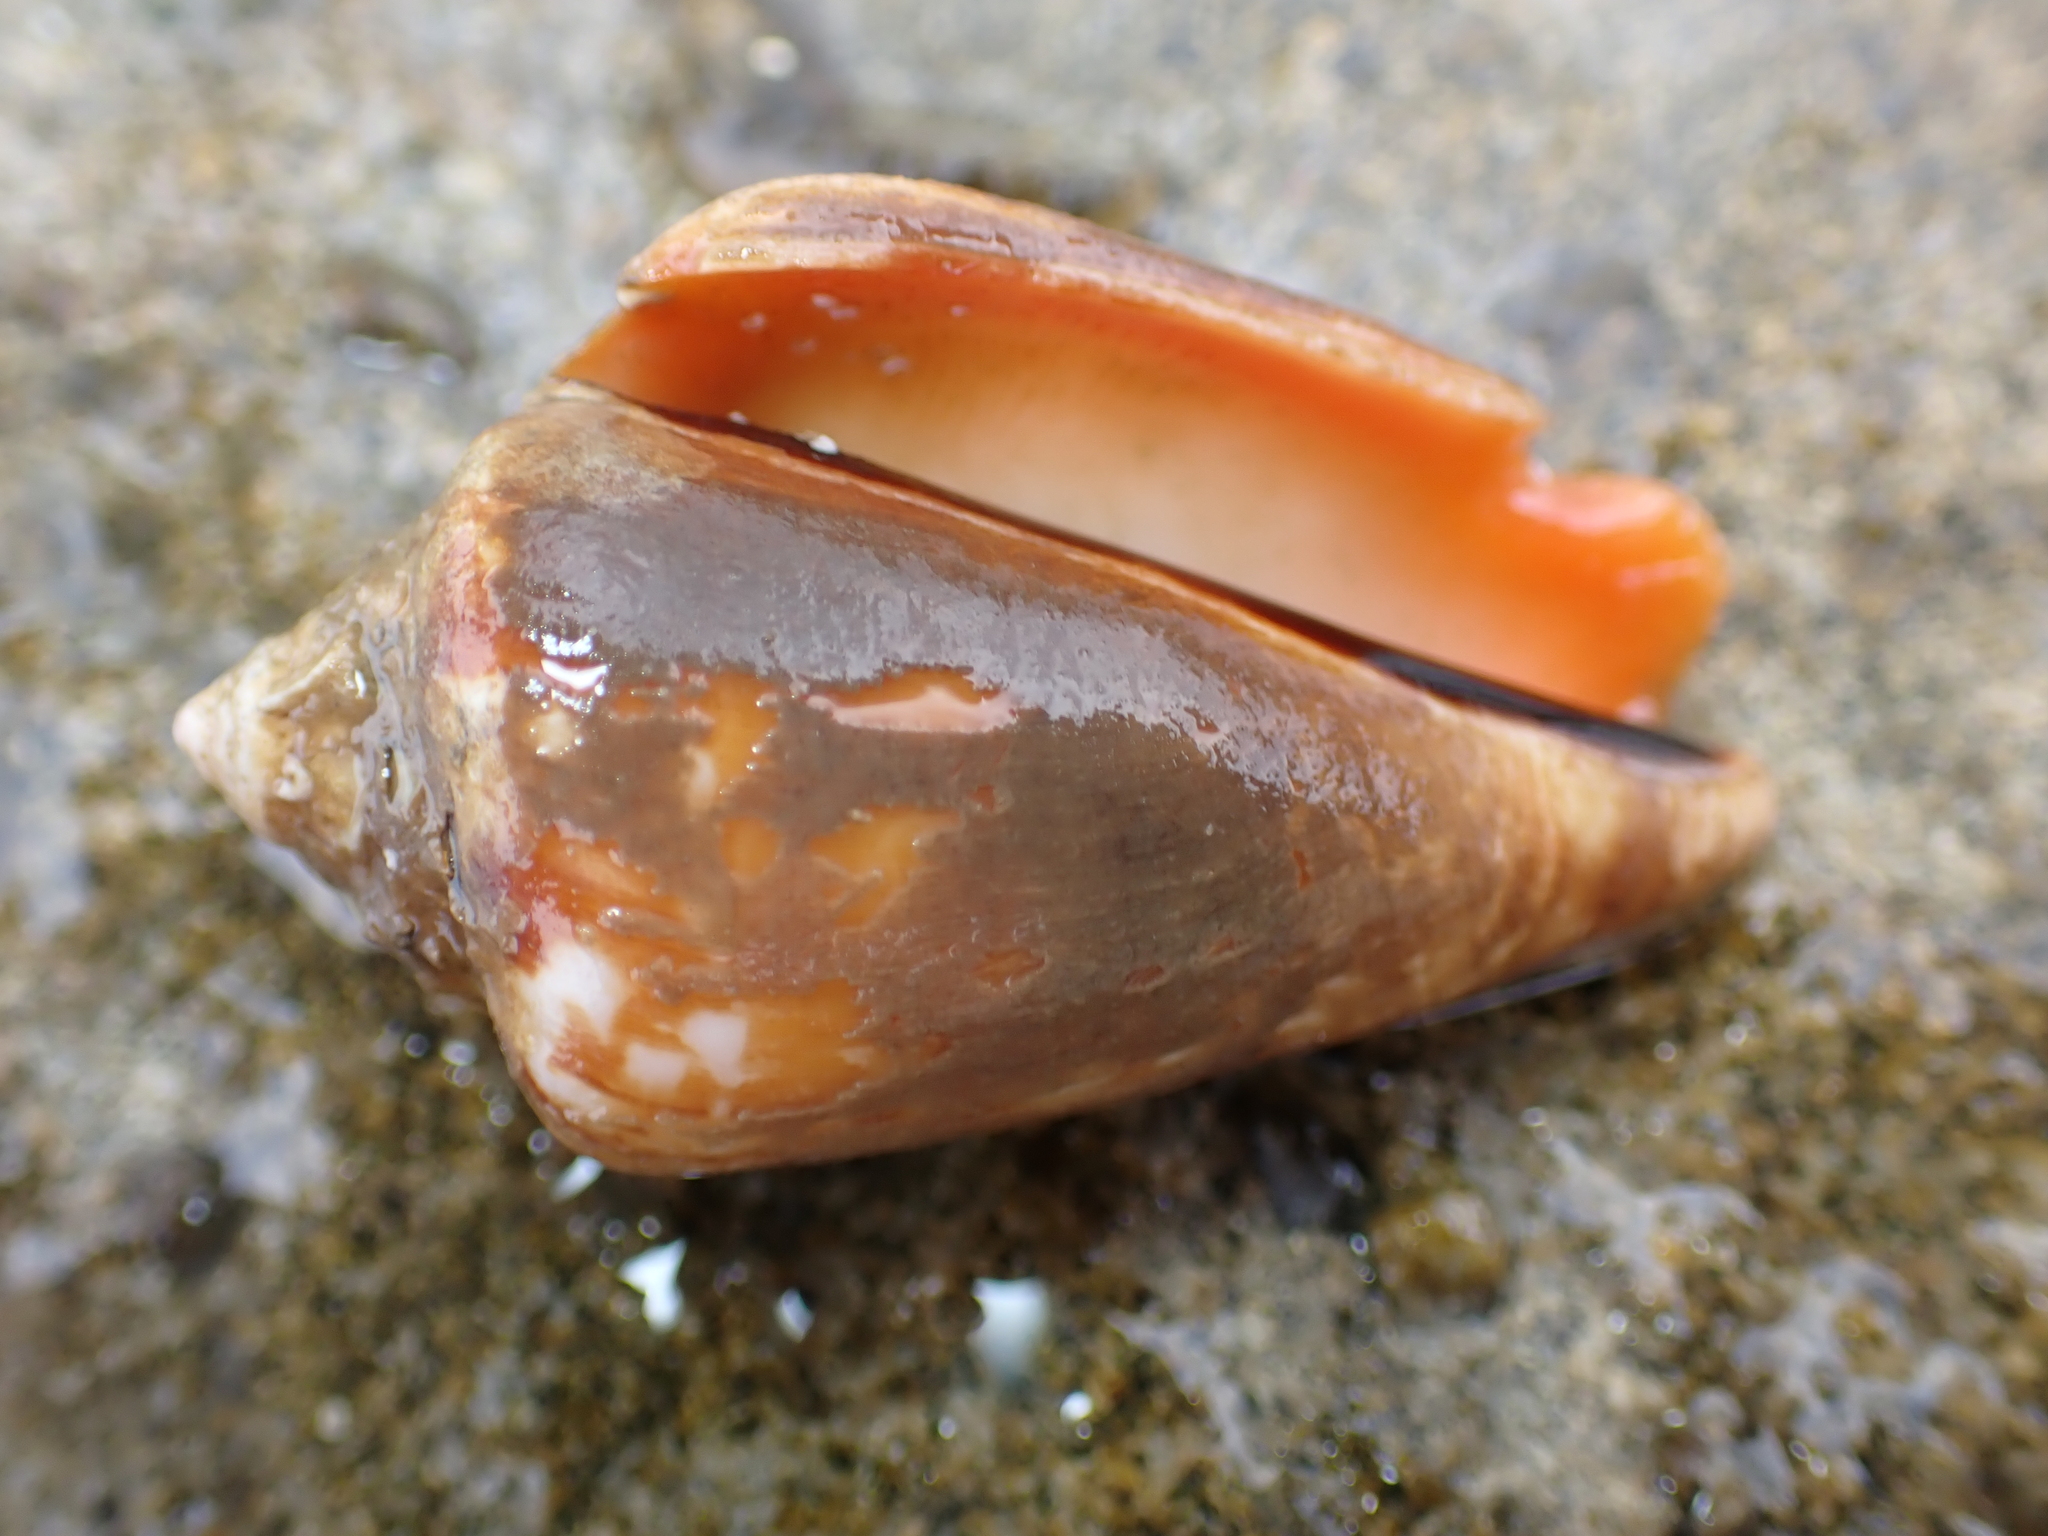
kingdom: Animalia
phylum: Mollusca
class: Gastropoda
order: Littorinimorpha
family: Strombidae
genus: Conomurex
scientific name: Conomurex luhuanus
